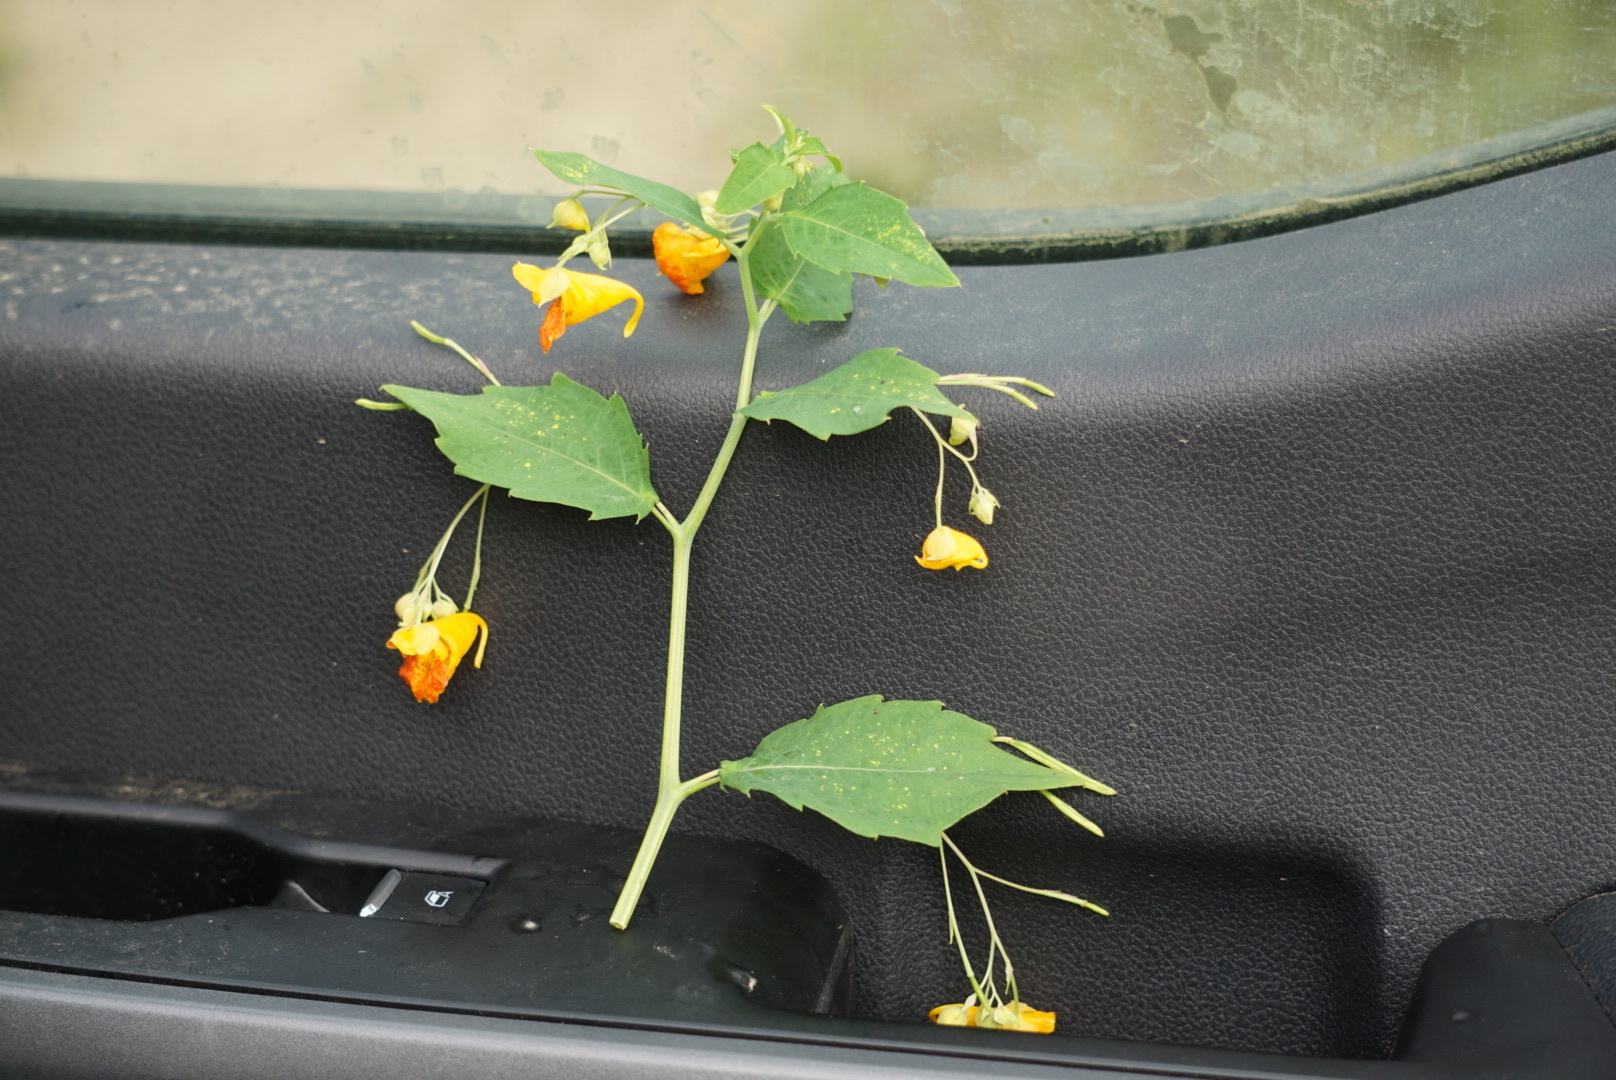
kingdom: Plantae
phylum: Tracheophyta
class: Magnoliopsida
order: Ericales
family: Balsaminaceae
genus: Impatiens
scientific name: Impatiens capensis
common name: Orange balsam
